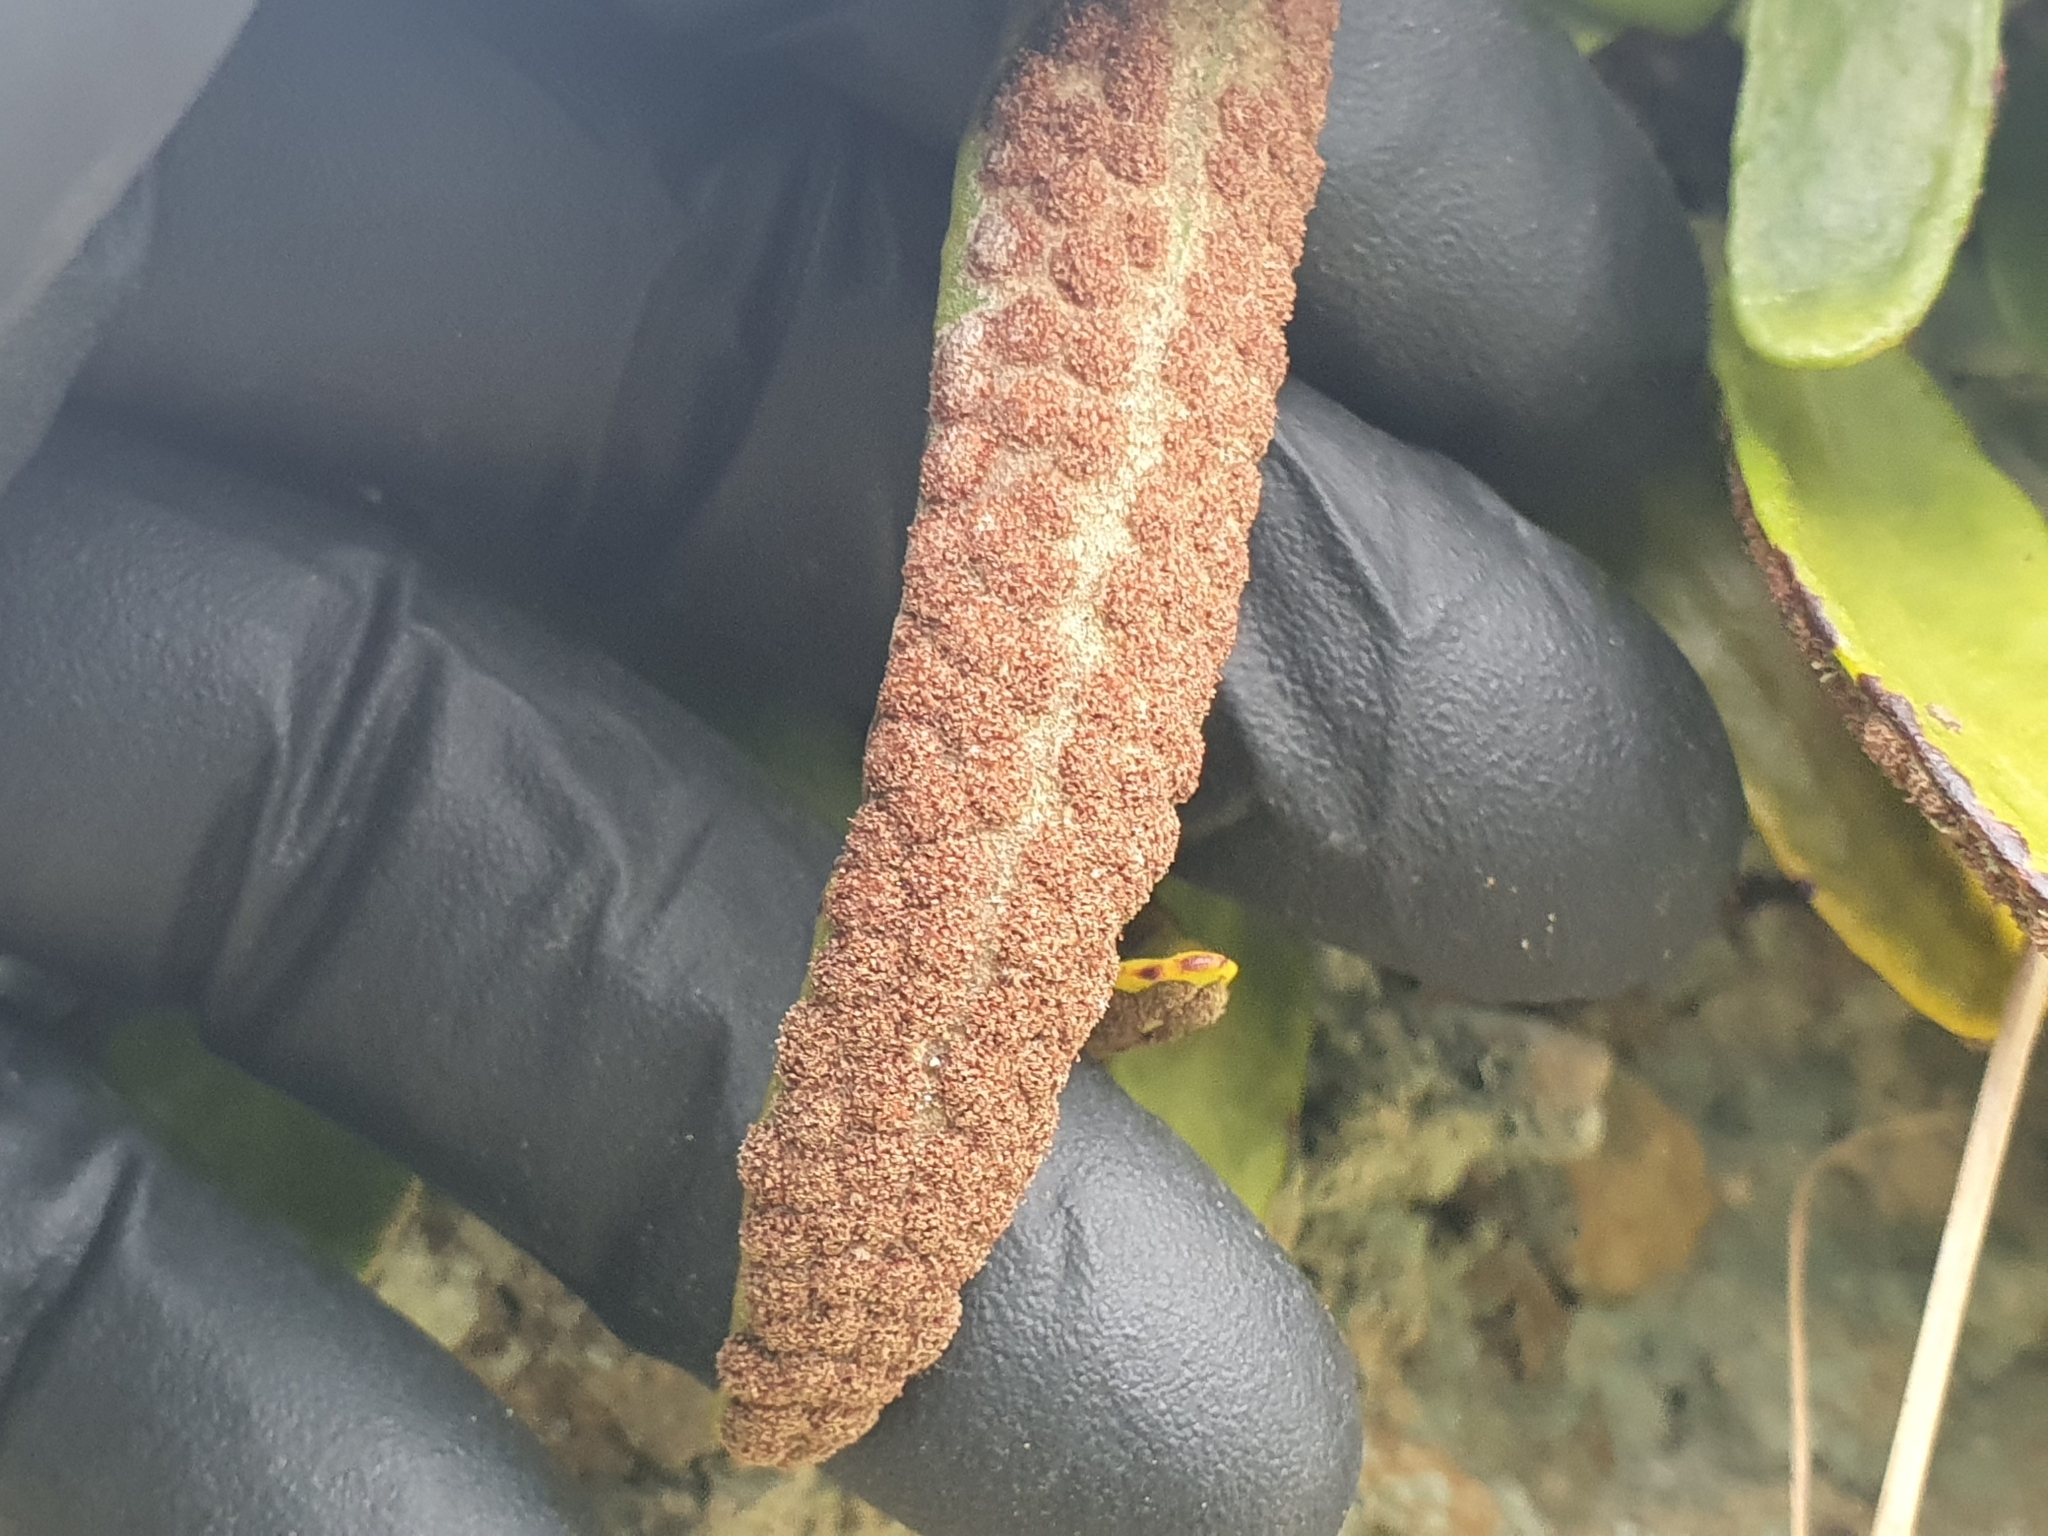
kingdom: Plantae
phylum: Tracheophyta
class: Polypodiopsida
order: Polypodiales
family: Polypodiaceae
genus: Pyrrosia
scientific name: Pyrrosia eleagnifolia
